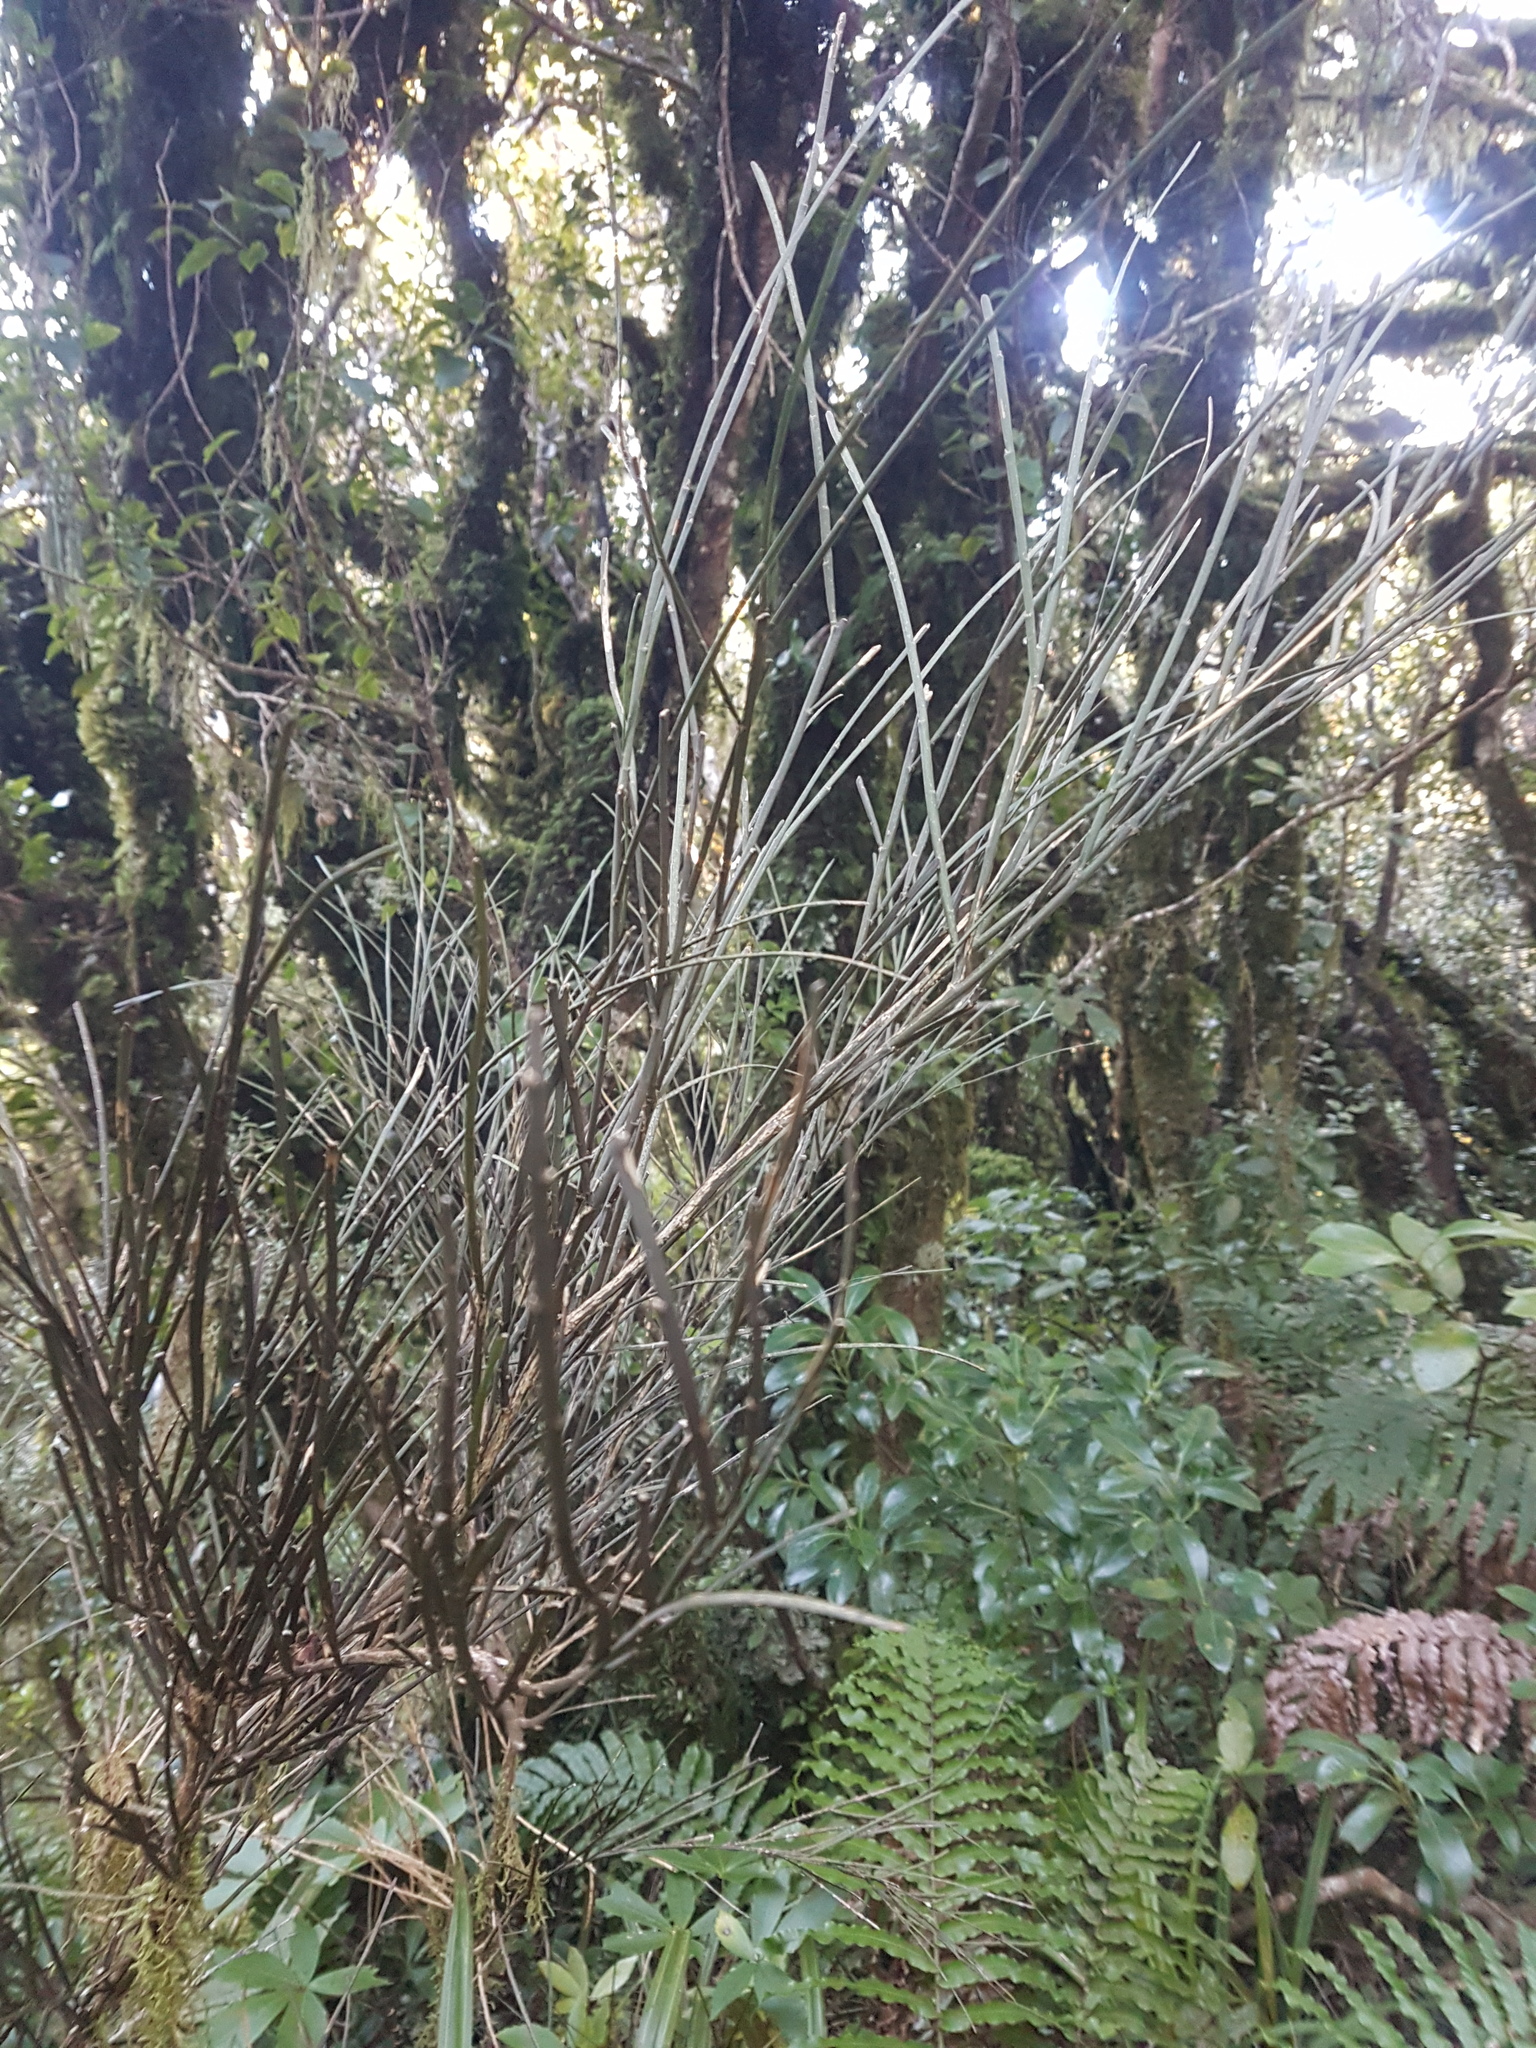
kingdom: Plantae
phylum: Tracheophyta
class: Magnoliopsida
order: Fabales
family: Fabaceae
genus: Carmichaelia
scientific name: Carmichaelia australis
